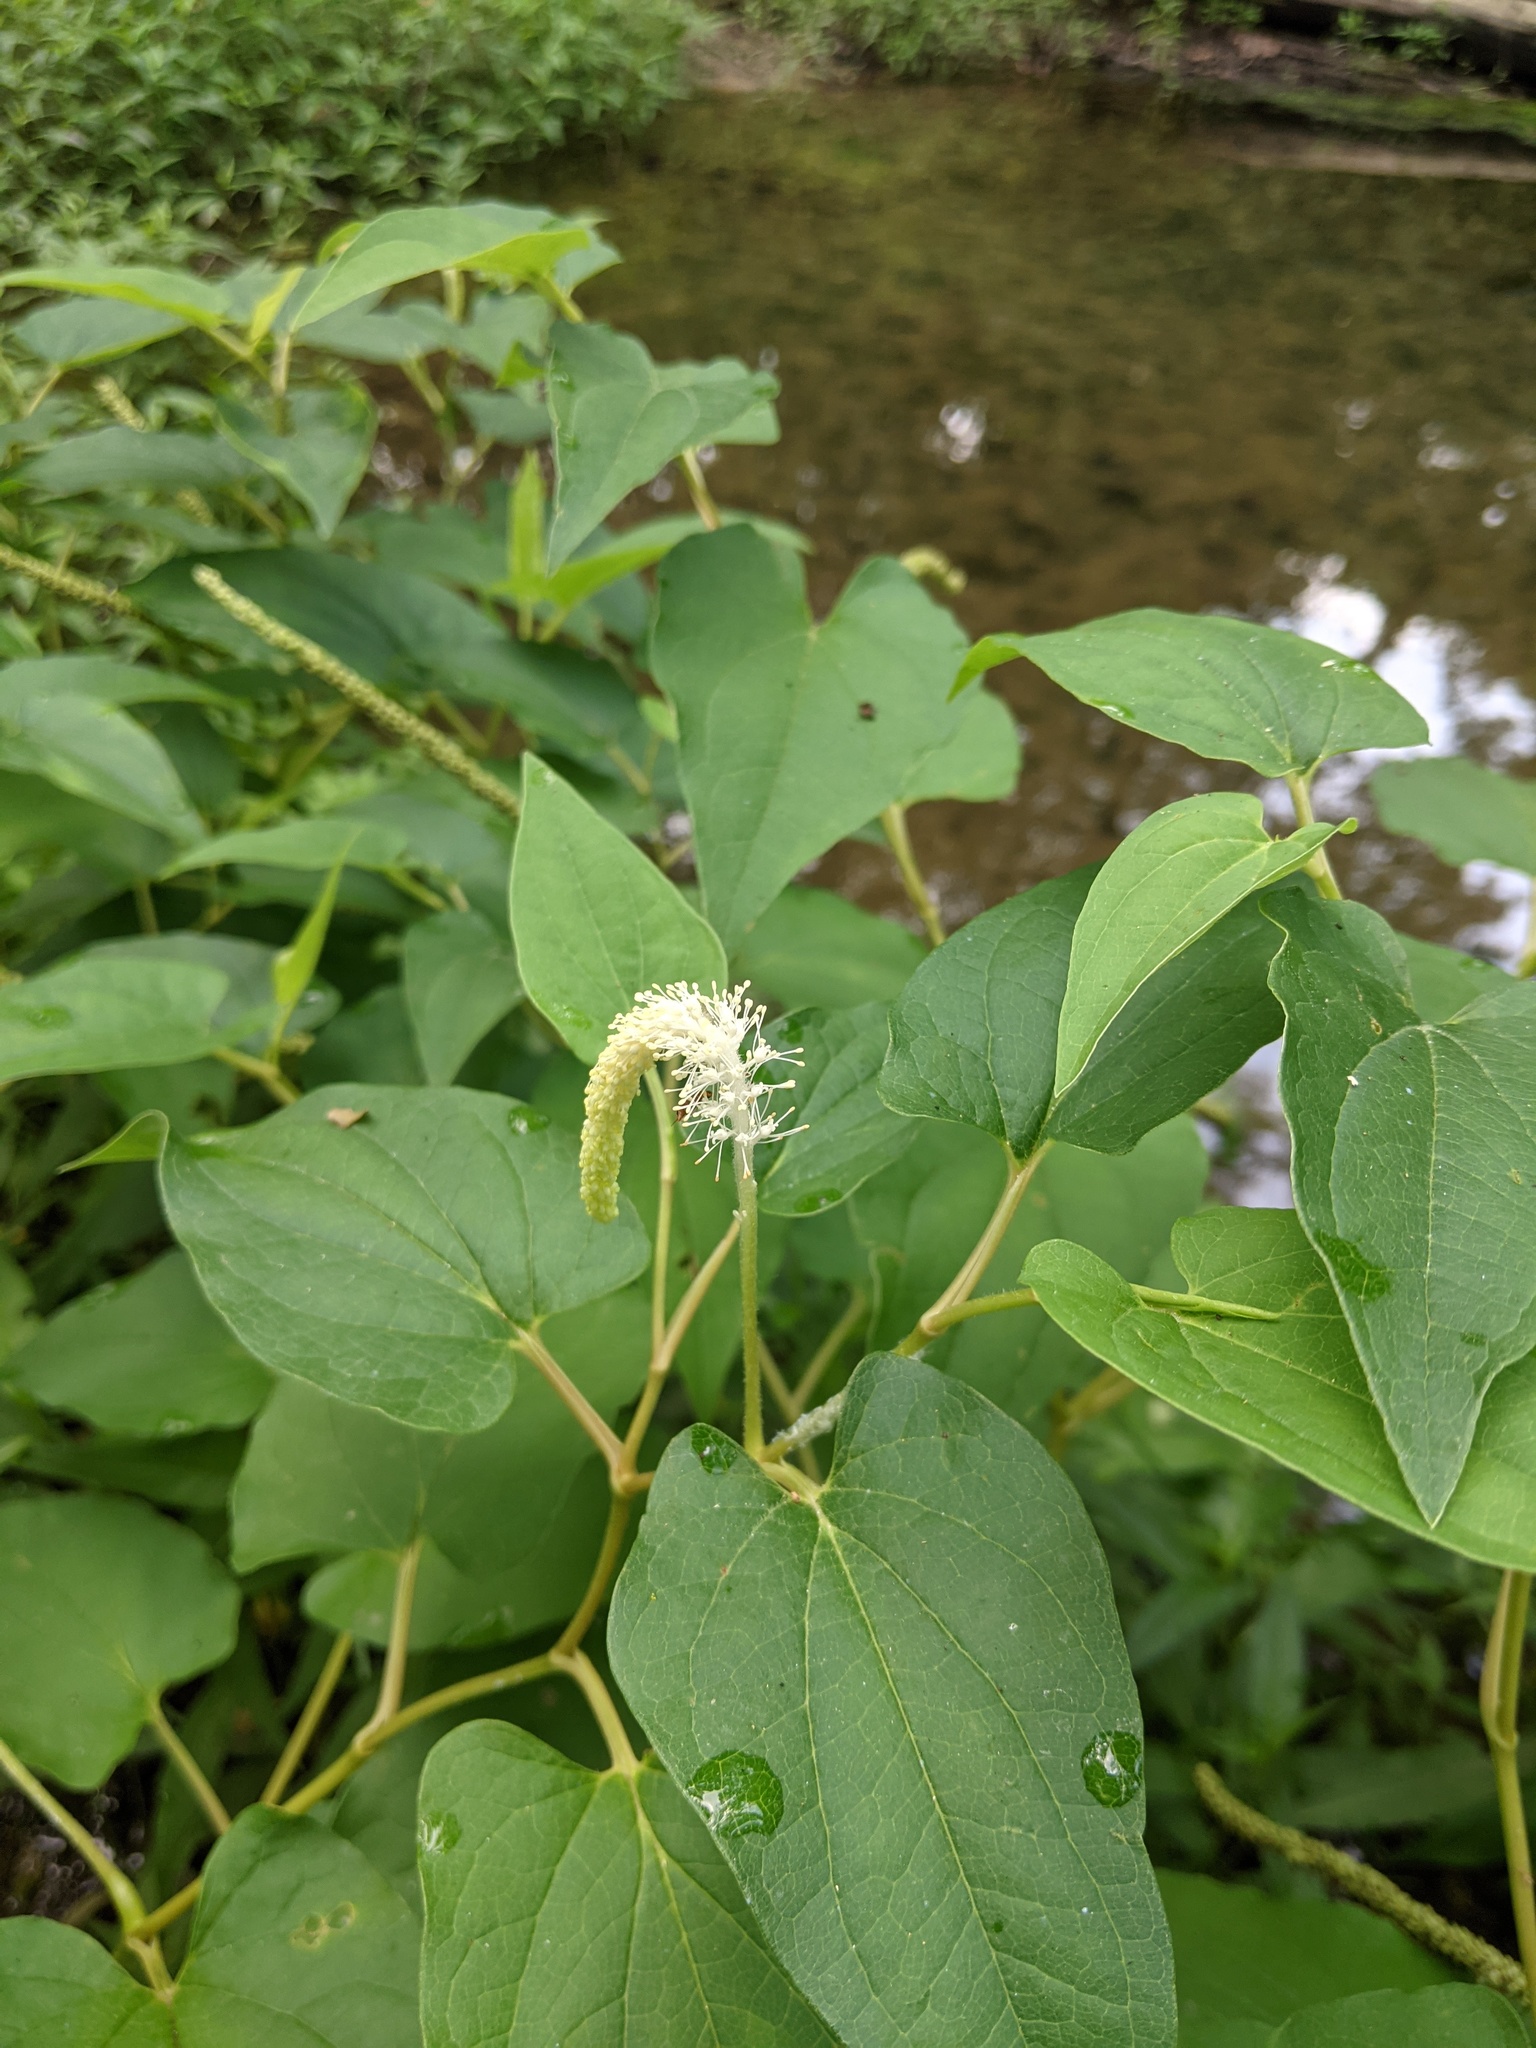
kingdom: Plantae
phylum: Tracheophyta
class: Magnoliopsida
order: Piperales
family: Saururaceae
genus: Saururus
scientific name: Saururus cernuus
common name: Lizard's-tail
